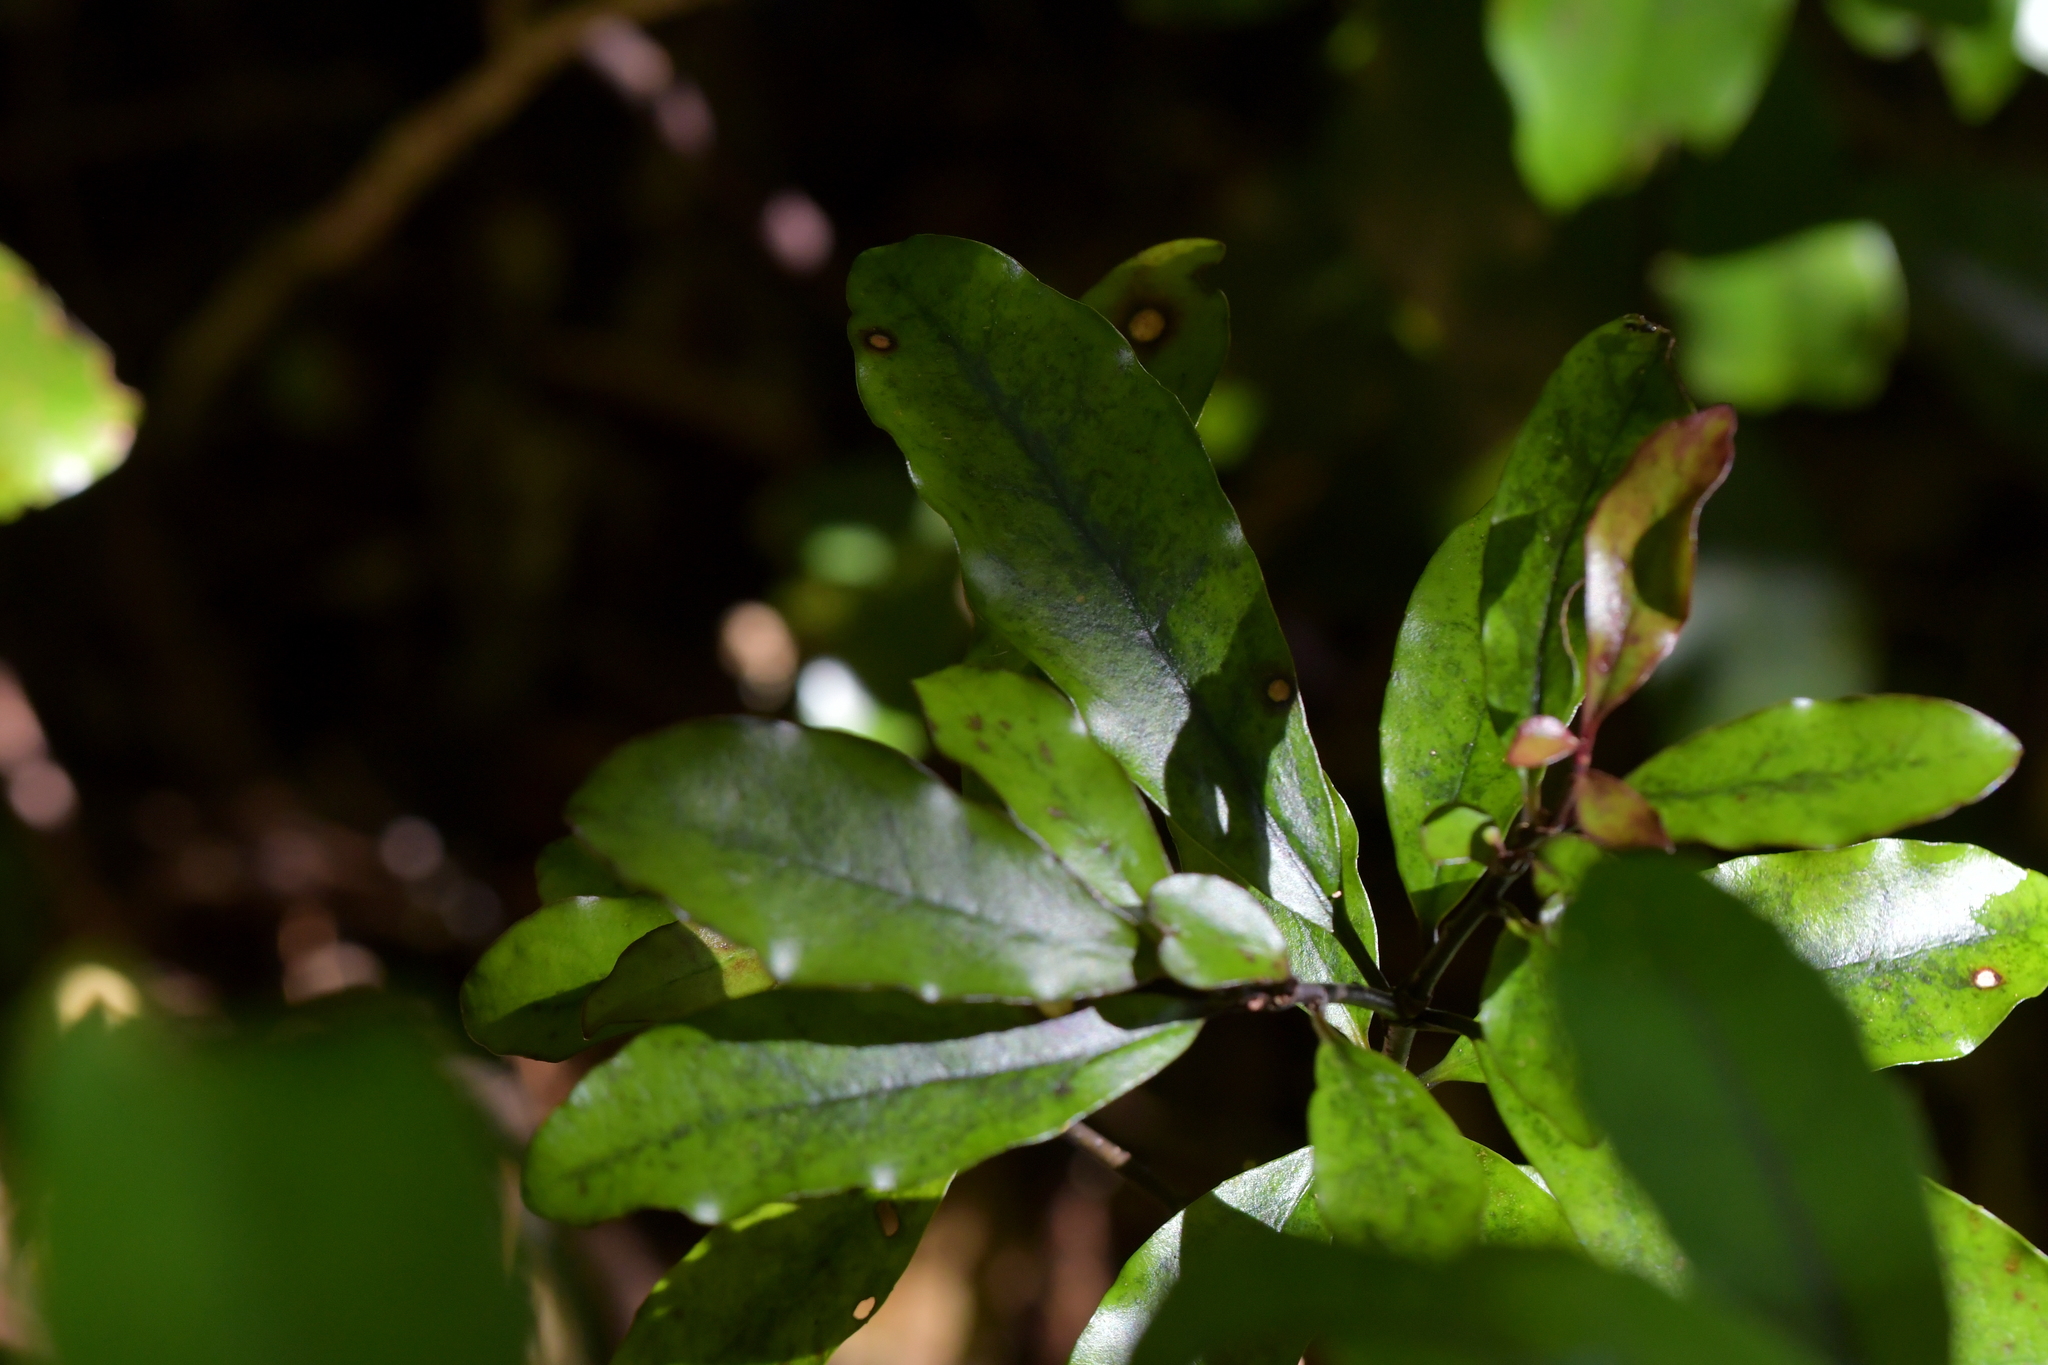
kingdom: Plantae
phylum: Tracheophyta
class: Magnoliopsida
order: Asterales
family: Alseuosmiaceae
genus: Alseuosmia
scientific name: Alseuosmia pusilla
